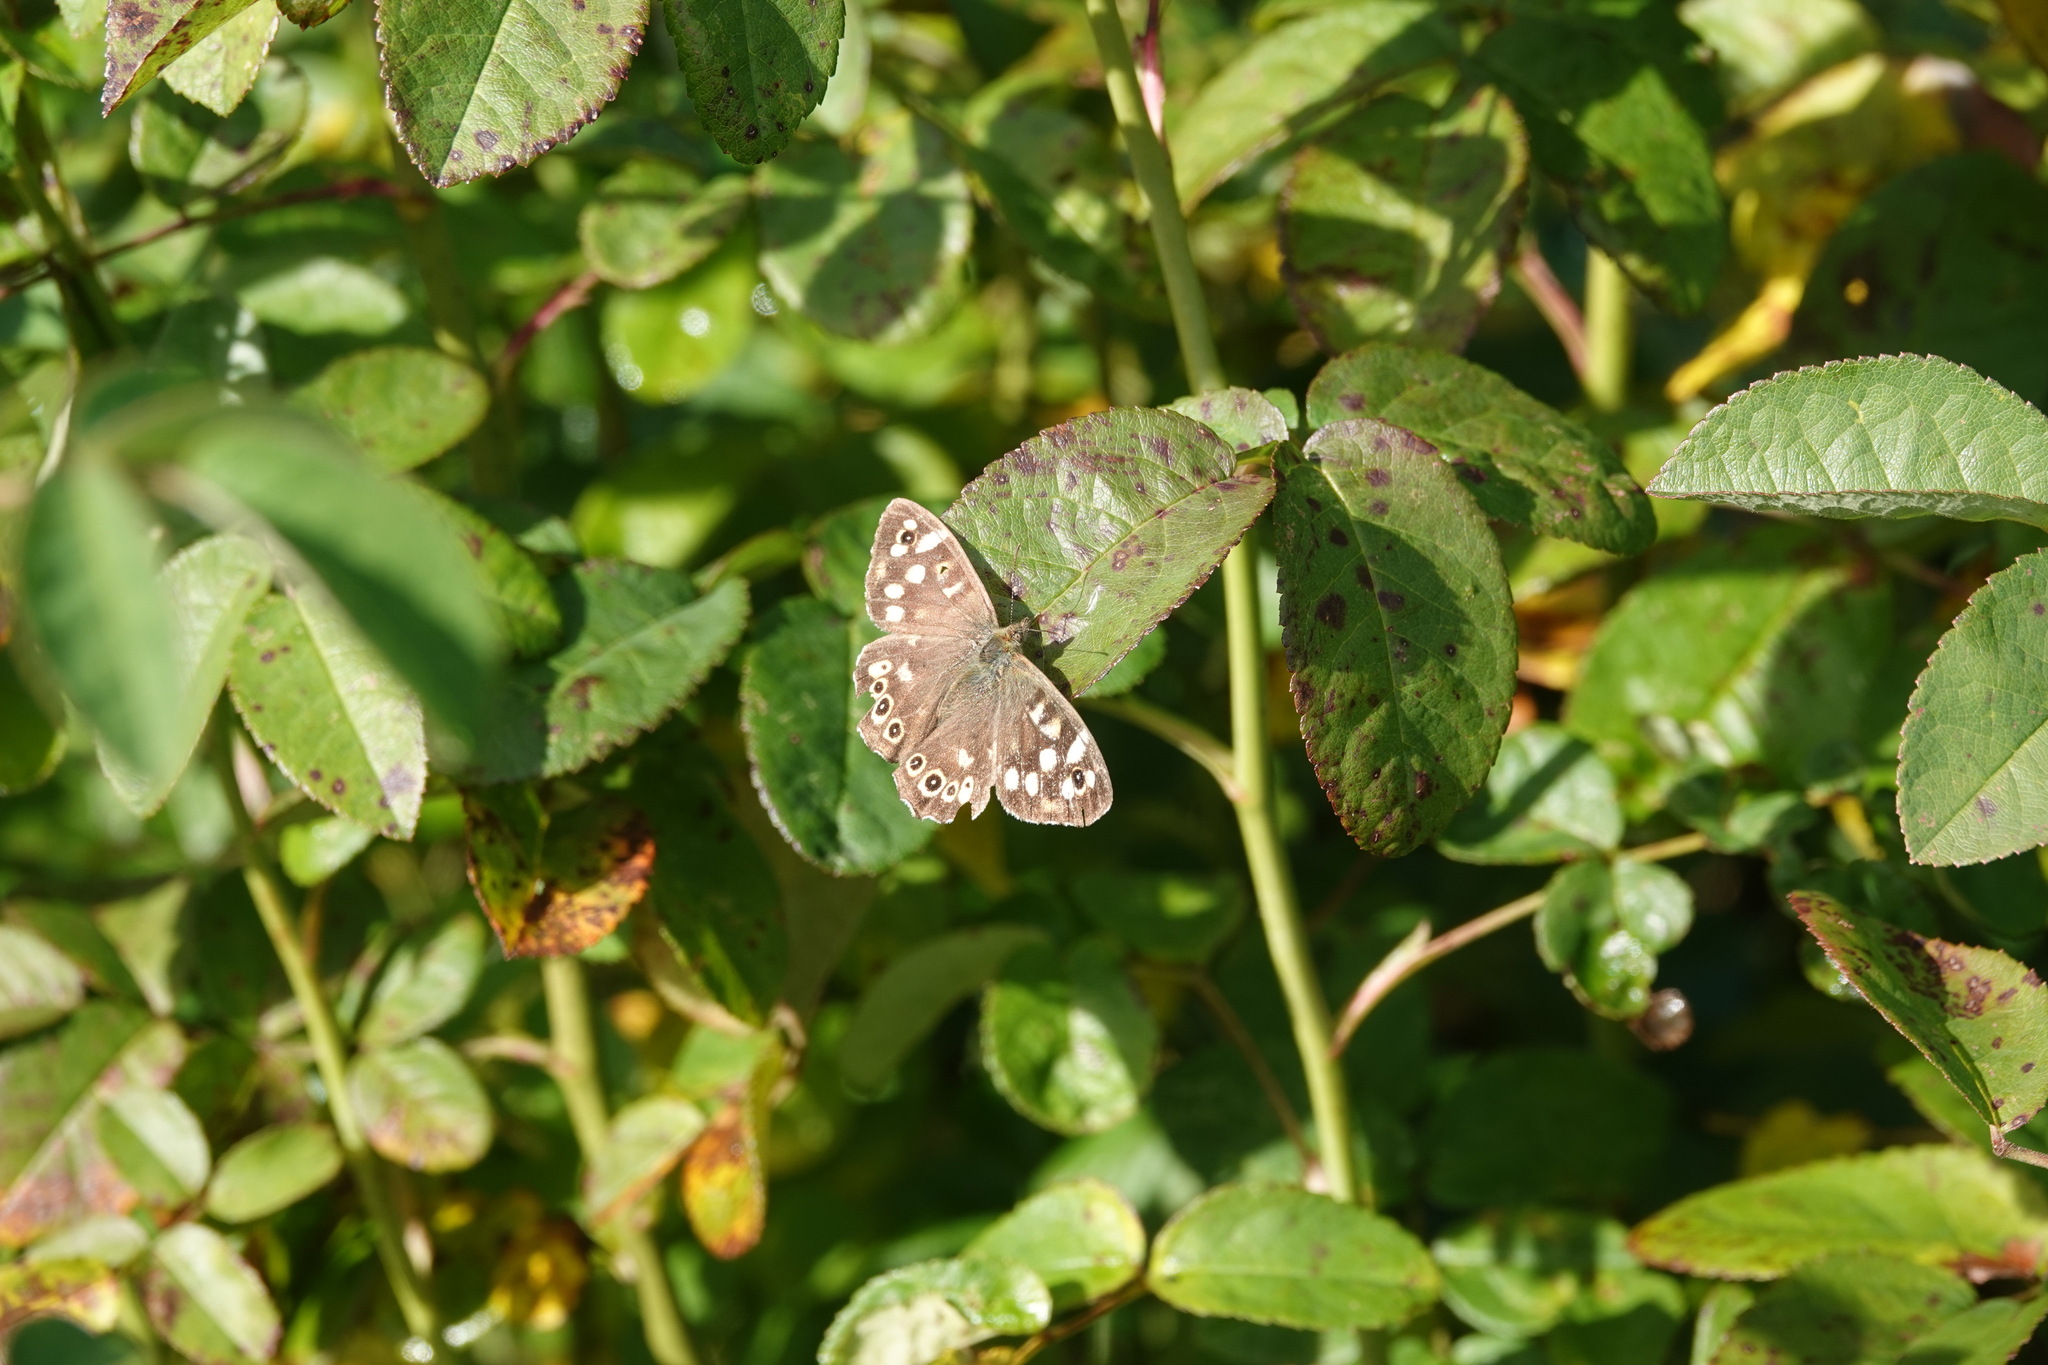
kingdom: Animalia
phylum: Arthropoda
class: Insecta
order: Lepidoptera
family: Nymphalidae
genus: Pararge
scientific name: Pararge aegeria
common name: Speckled wood
